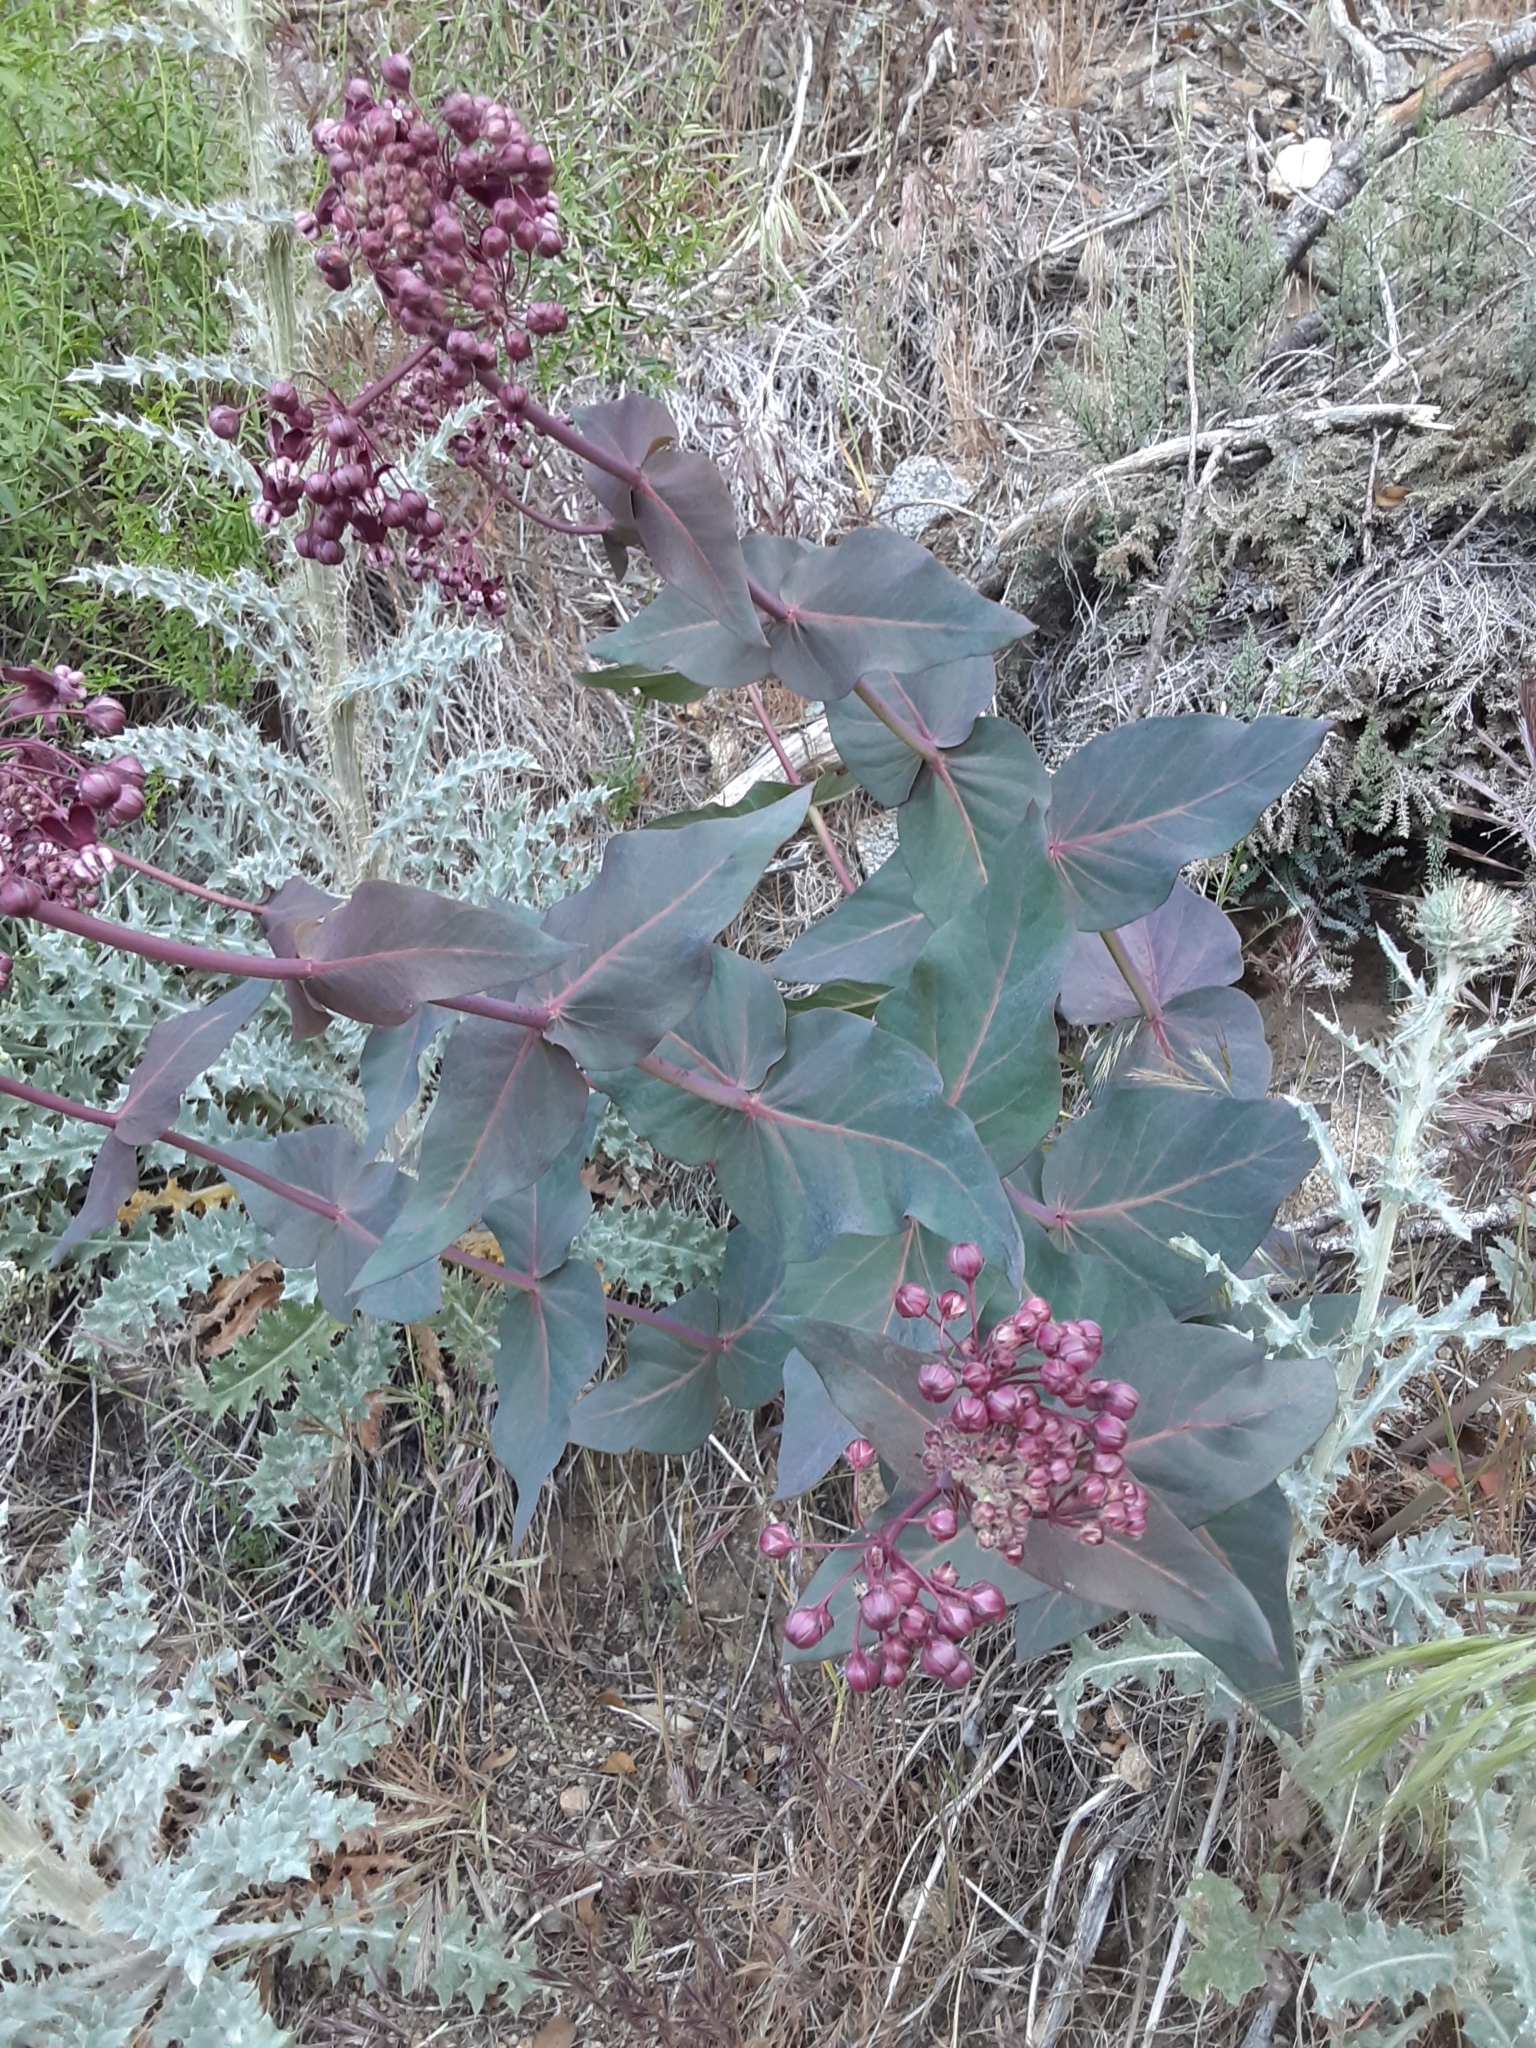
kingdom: Plantae
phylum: Tracheophyta
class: Magnoliopsida
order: Gentianales
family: Apocynaceae
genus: Asclepias
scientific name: Asclepias cordifolia
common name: Purple milkweed
